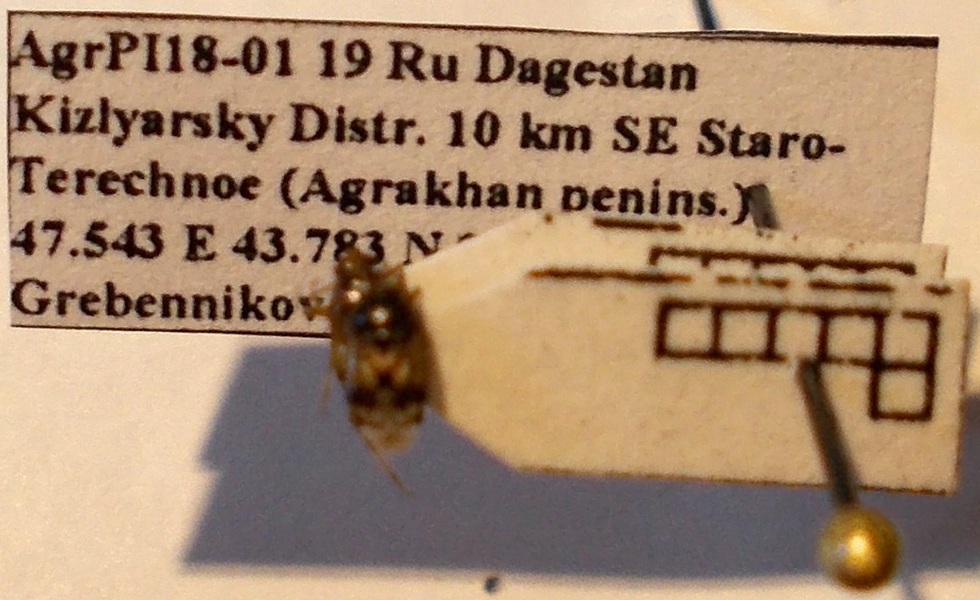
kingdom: Animalia
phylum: Arthropoda
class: Insecta
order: Hemiptera
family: Miridae
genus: Deraeocoris
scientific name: Deraeocoris serenus
